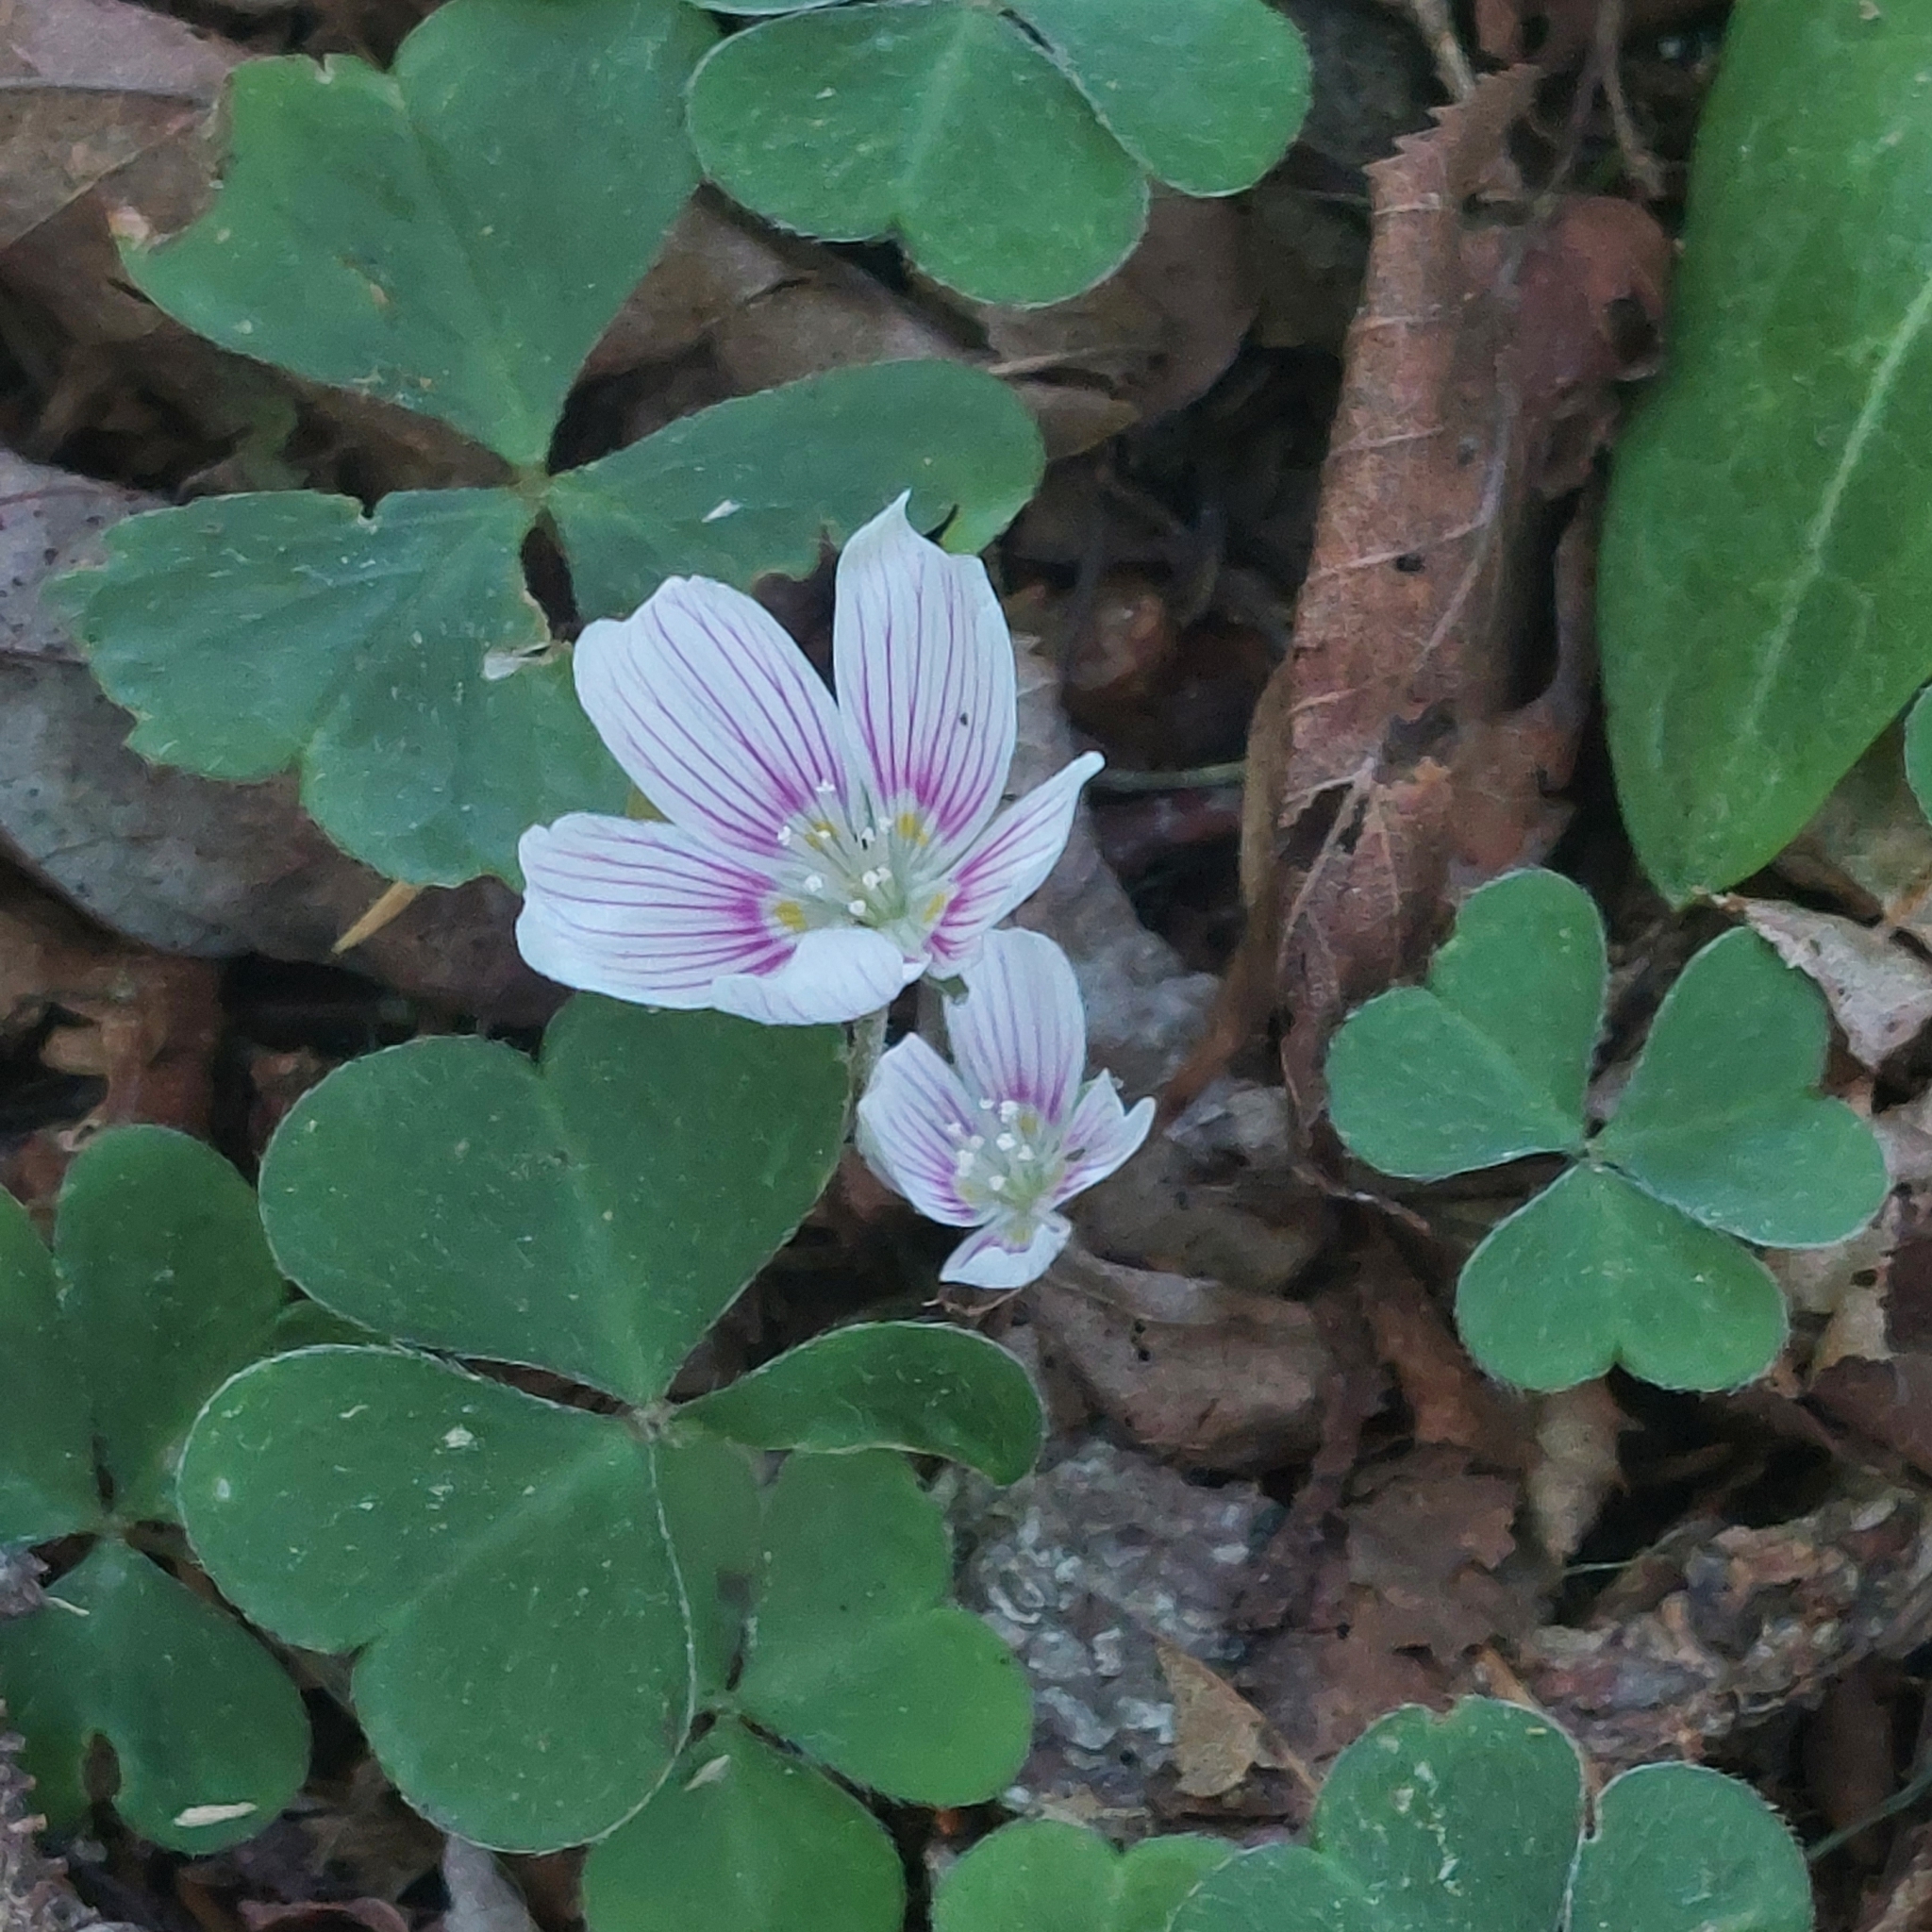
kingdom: Plantae
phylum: Tracheophyta
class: Magnoliopsida
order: Oxalidales
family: Oxalidaceae
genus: Oxalis
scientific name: Oxalis montana
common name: American wood-sorrel
